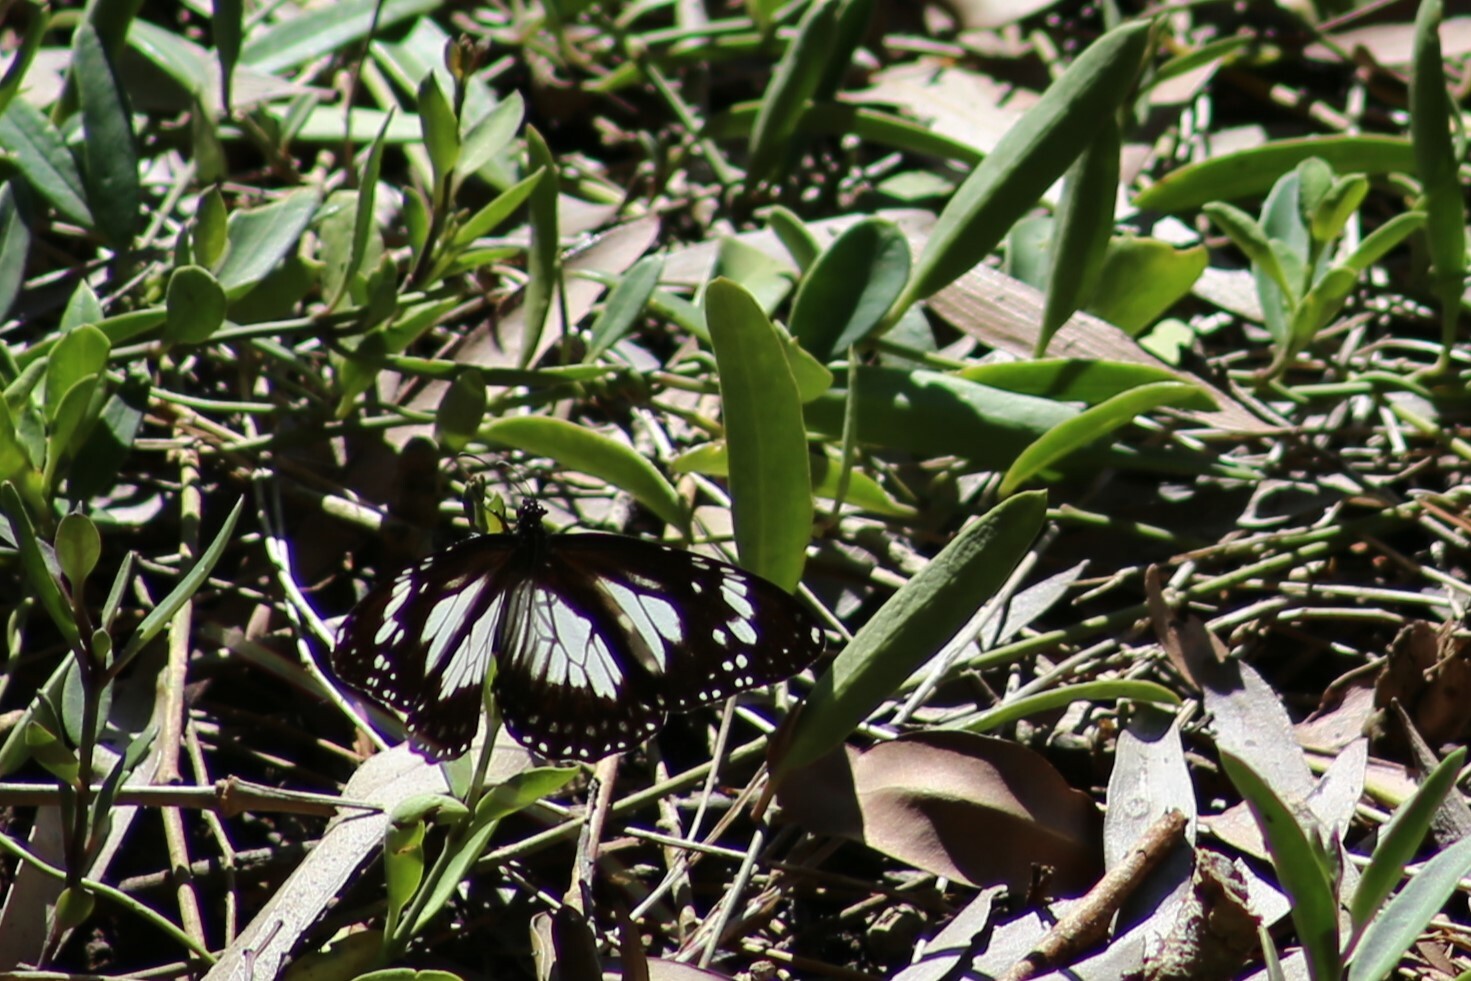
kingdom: Animalia
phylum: Arthropoda
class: Insecta
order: Lepidoptera
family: Nymphalidae
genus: Danaus
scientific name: Danaus affinis
